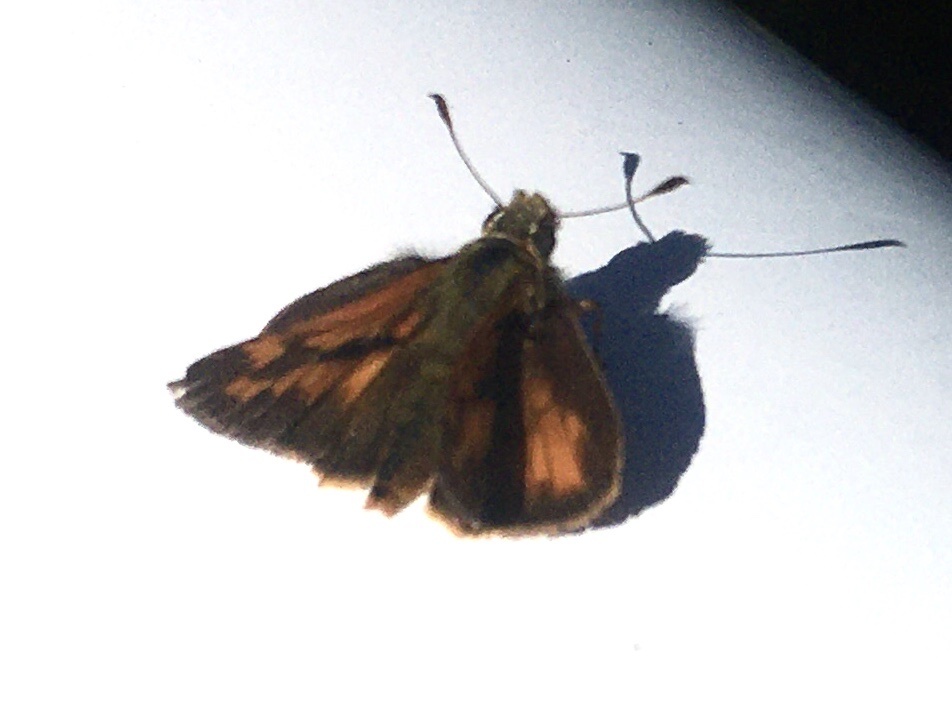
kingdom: Animalia
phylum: Arthropoda
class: Insecta
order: Lepidoptera
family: Hesperiidae
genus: Ochlodes
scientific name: Ochlodes sylvanoides
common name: Woodland skipper
